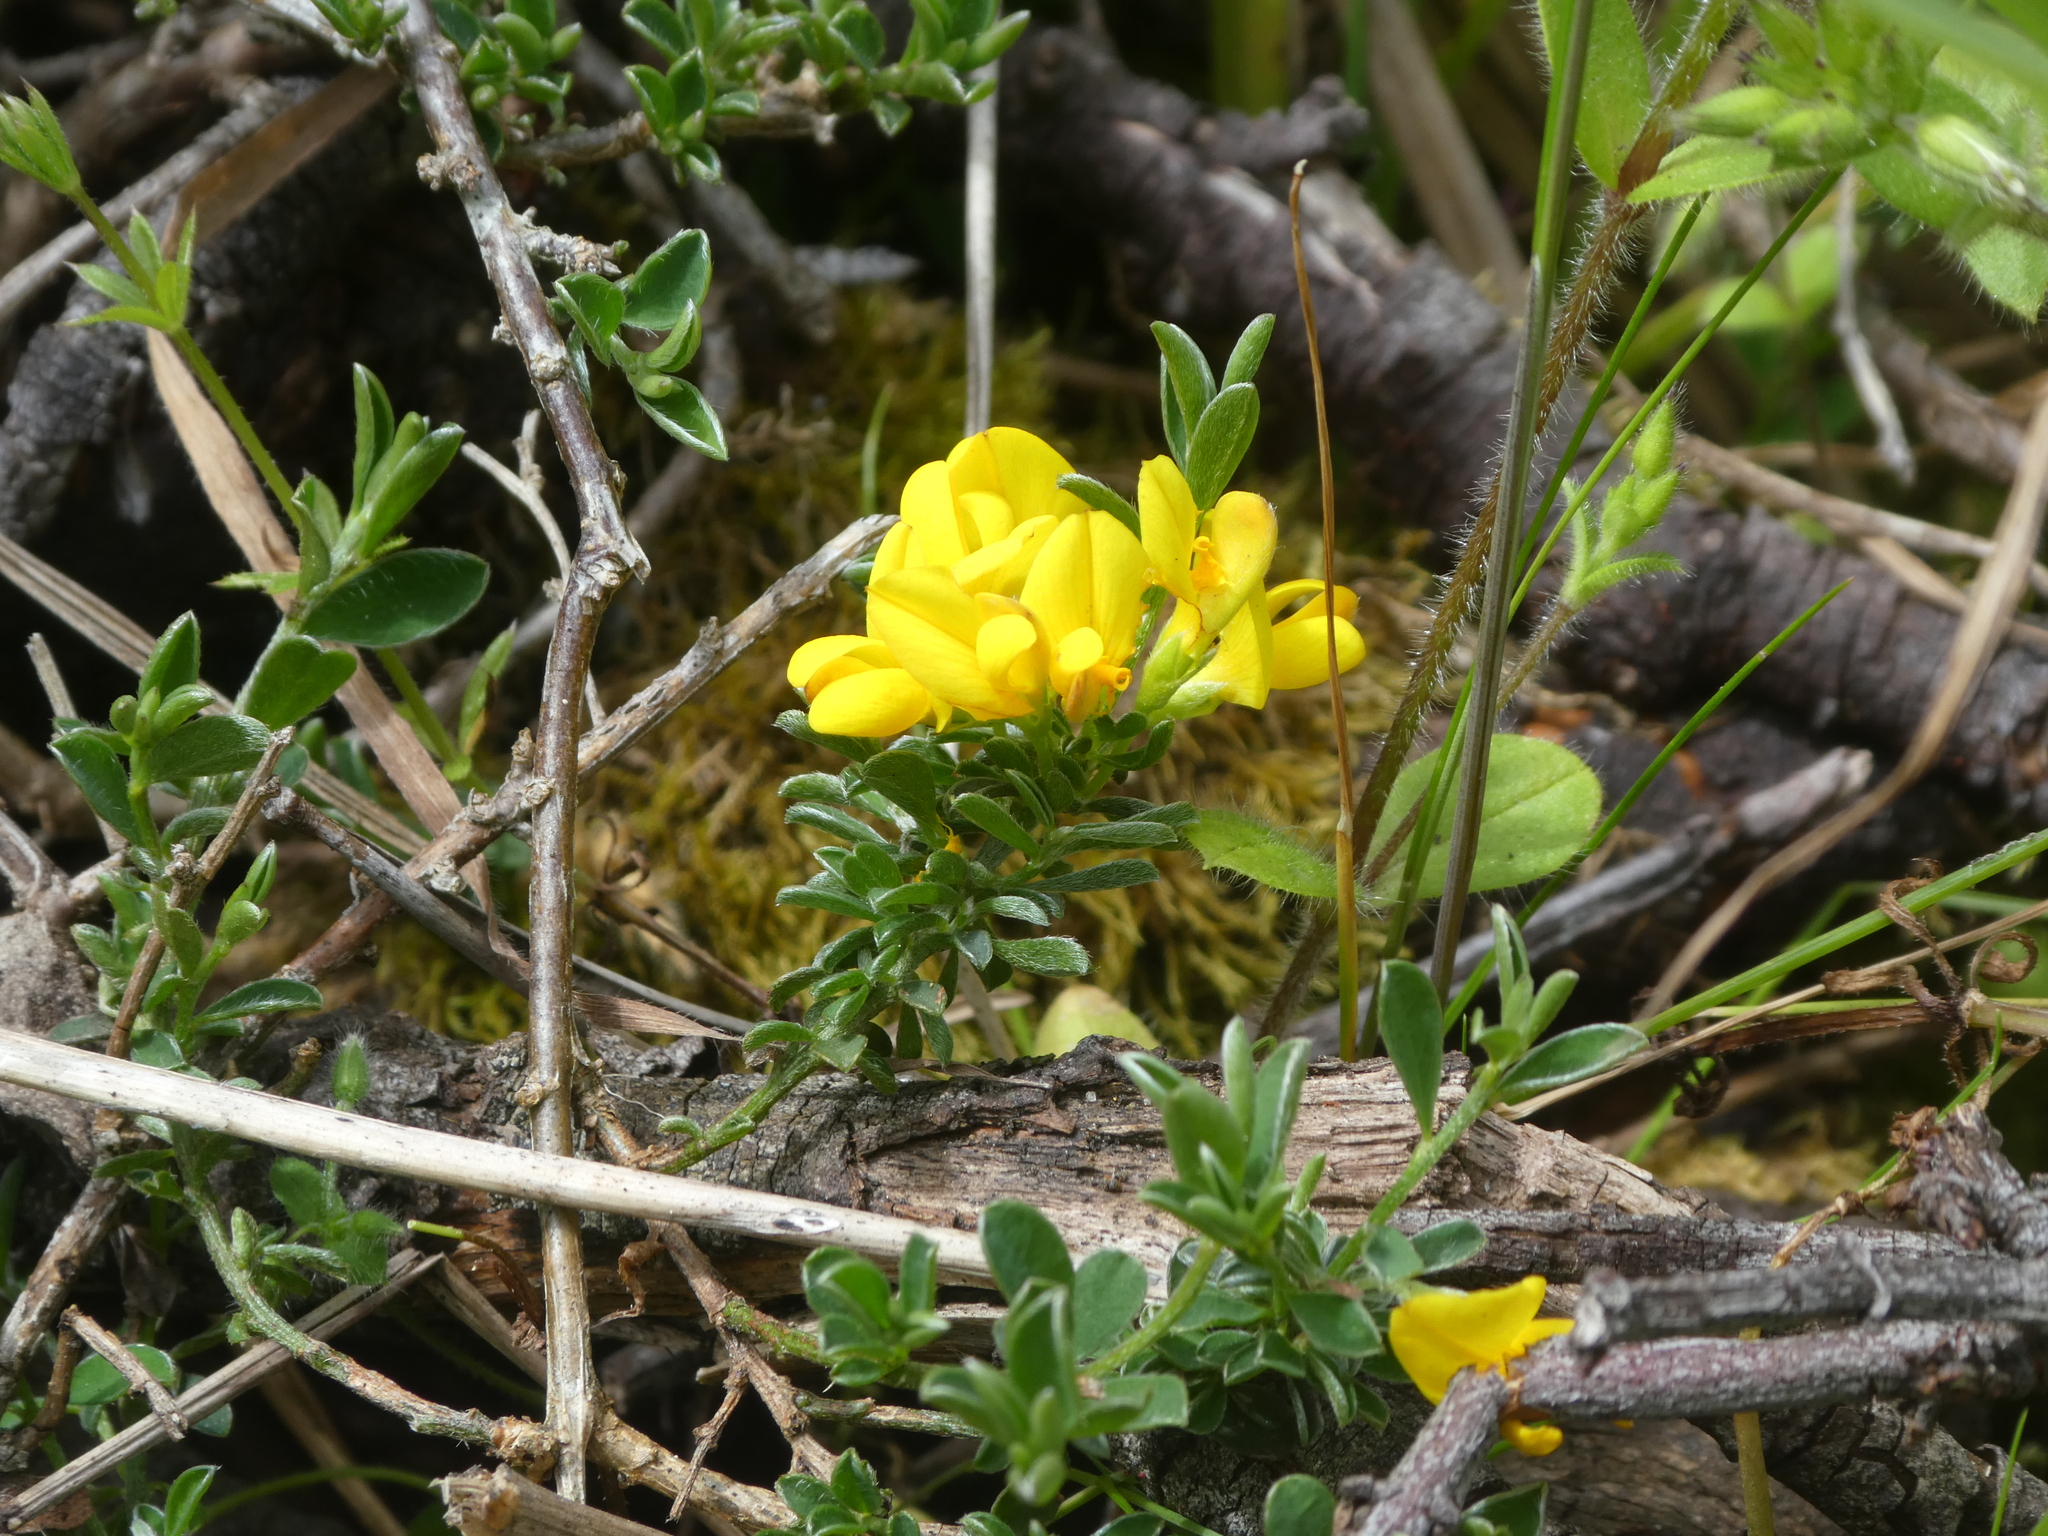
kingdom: Plantae
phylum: Tracheophyta
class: Magnoliopsida
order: Fabales
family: Fabaceae
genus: Genista
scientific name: Genista monspessulana
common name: Montpellier broom
